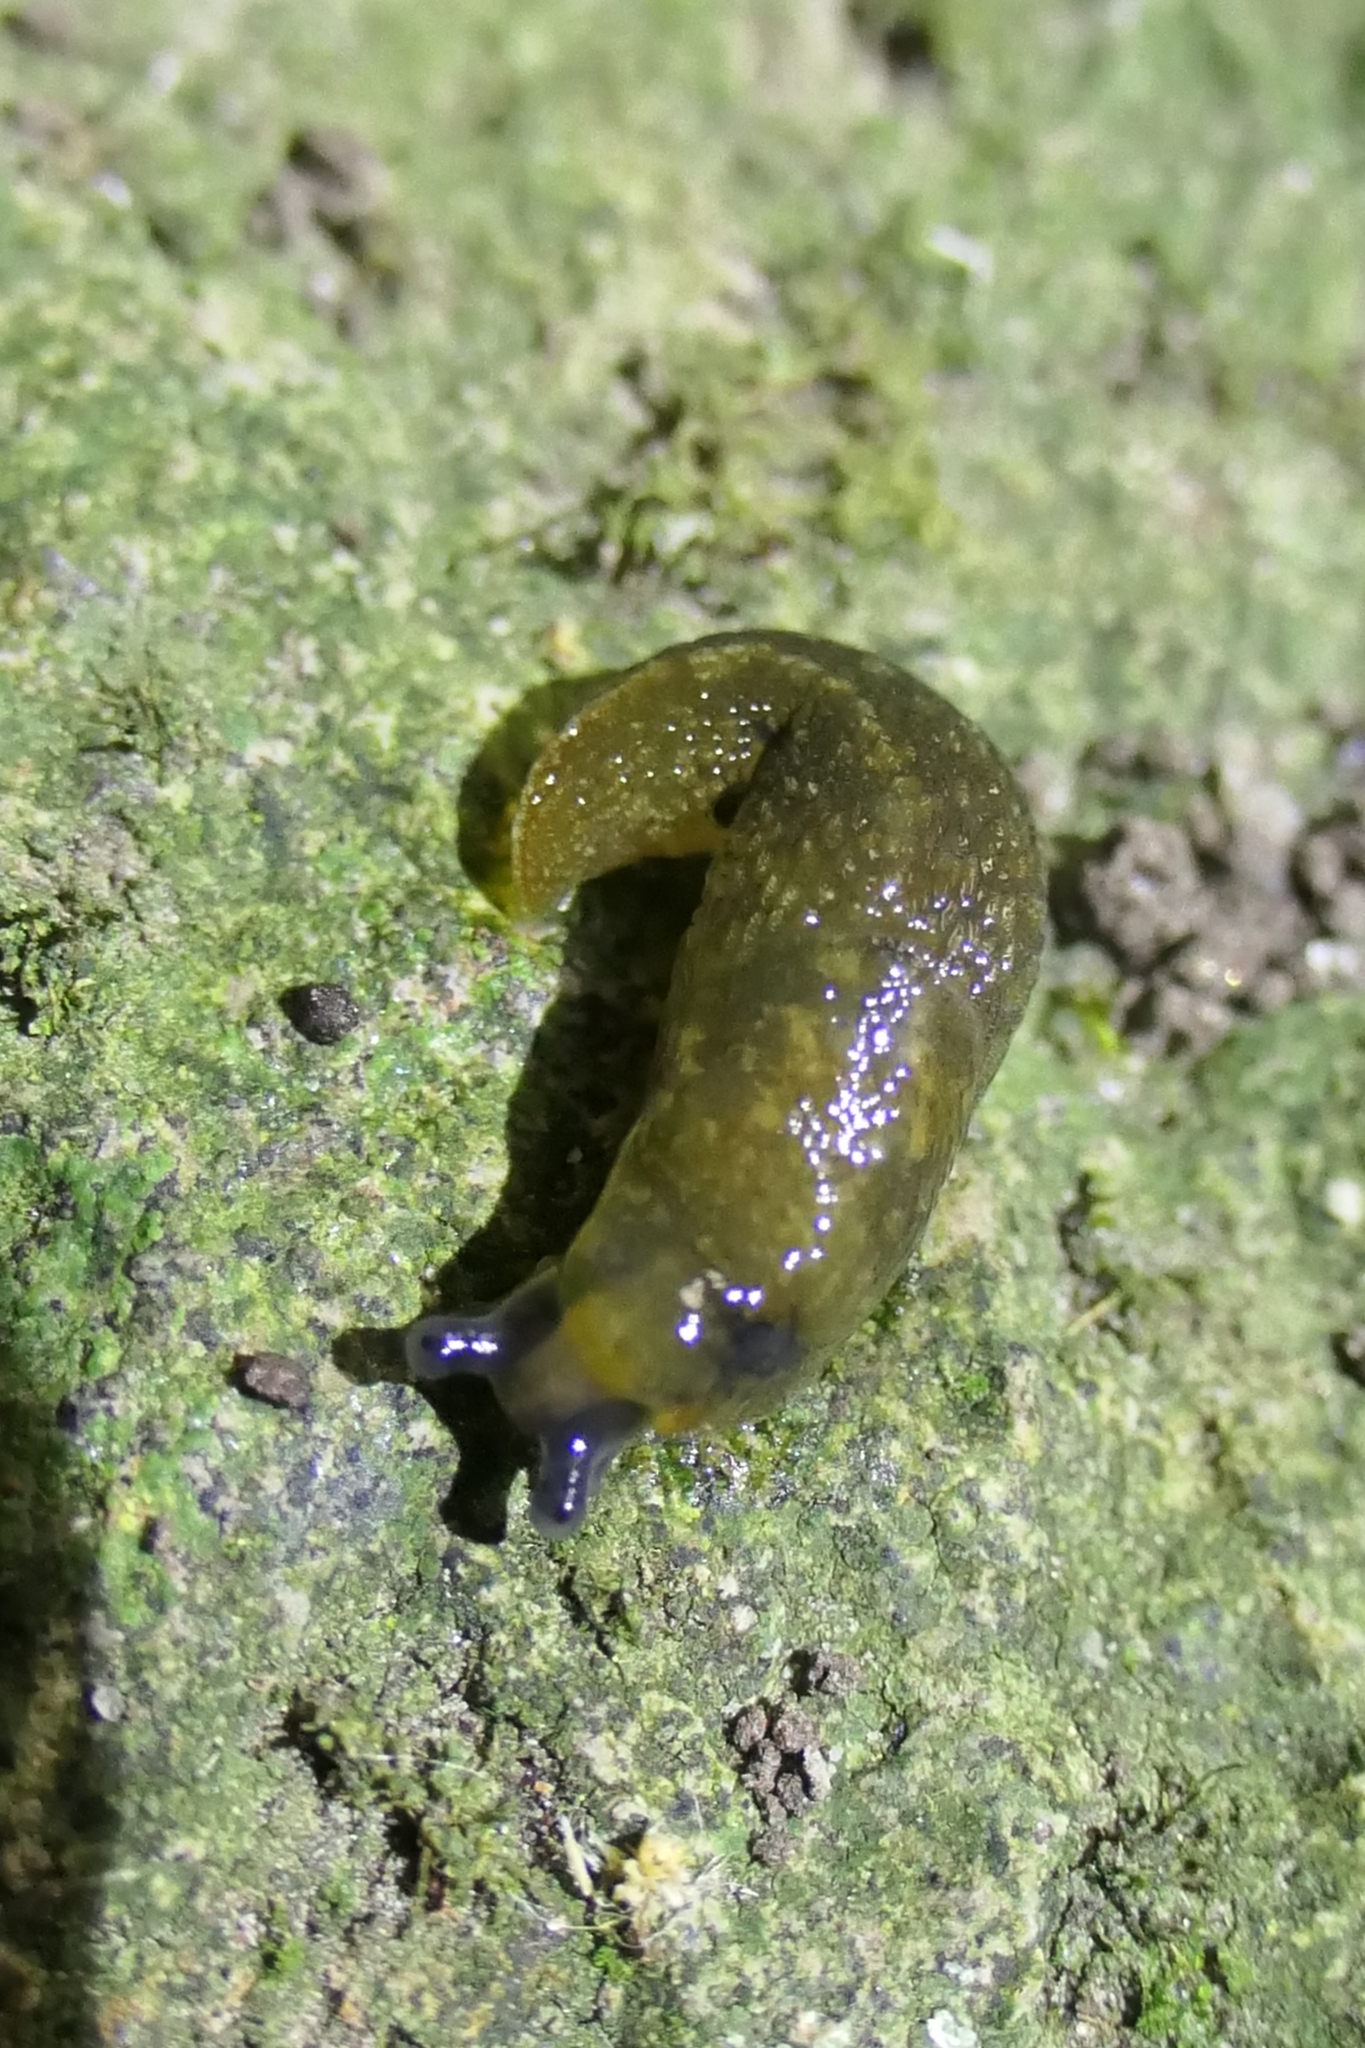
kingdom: Animalia
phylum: Mollusca
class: Gastropoda
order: Stylommatophora
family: Limacidae
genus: Limacus
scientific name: Limacus flavus
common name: Yellow gardenslug
